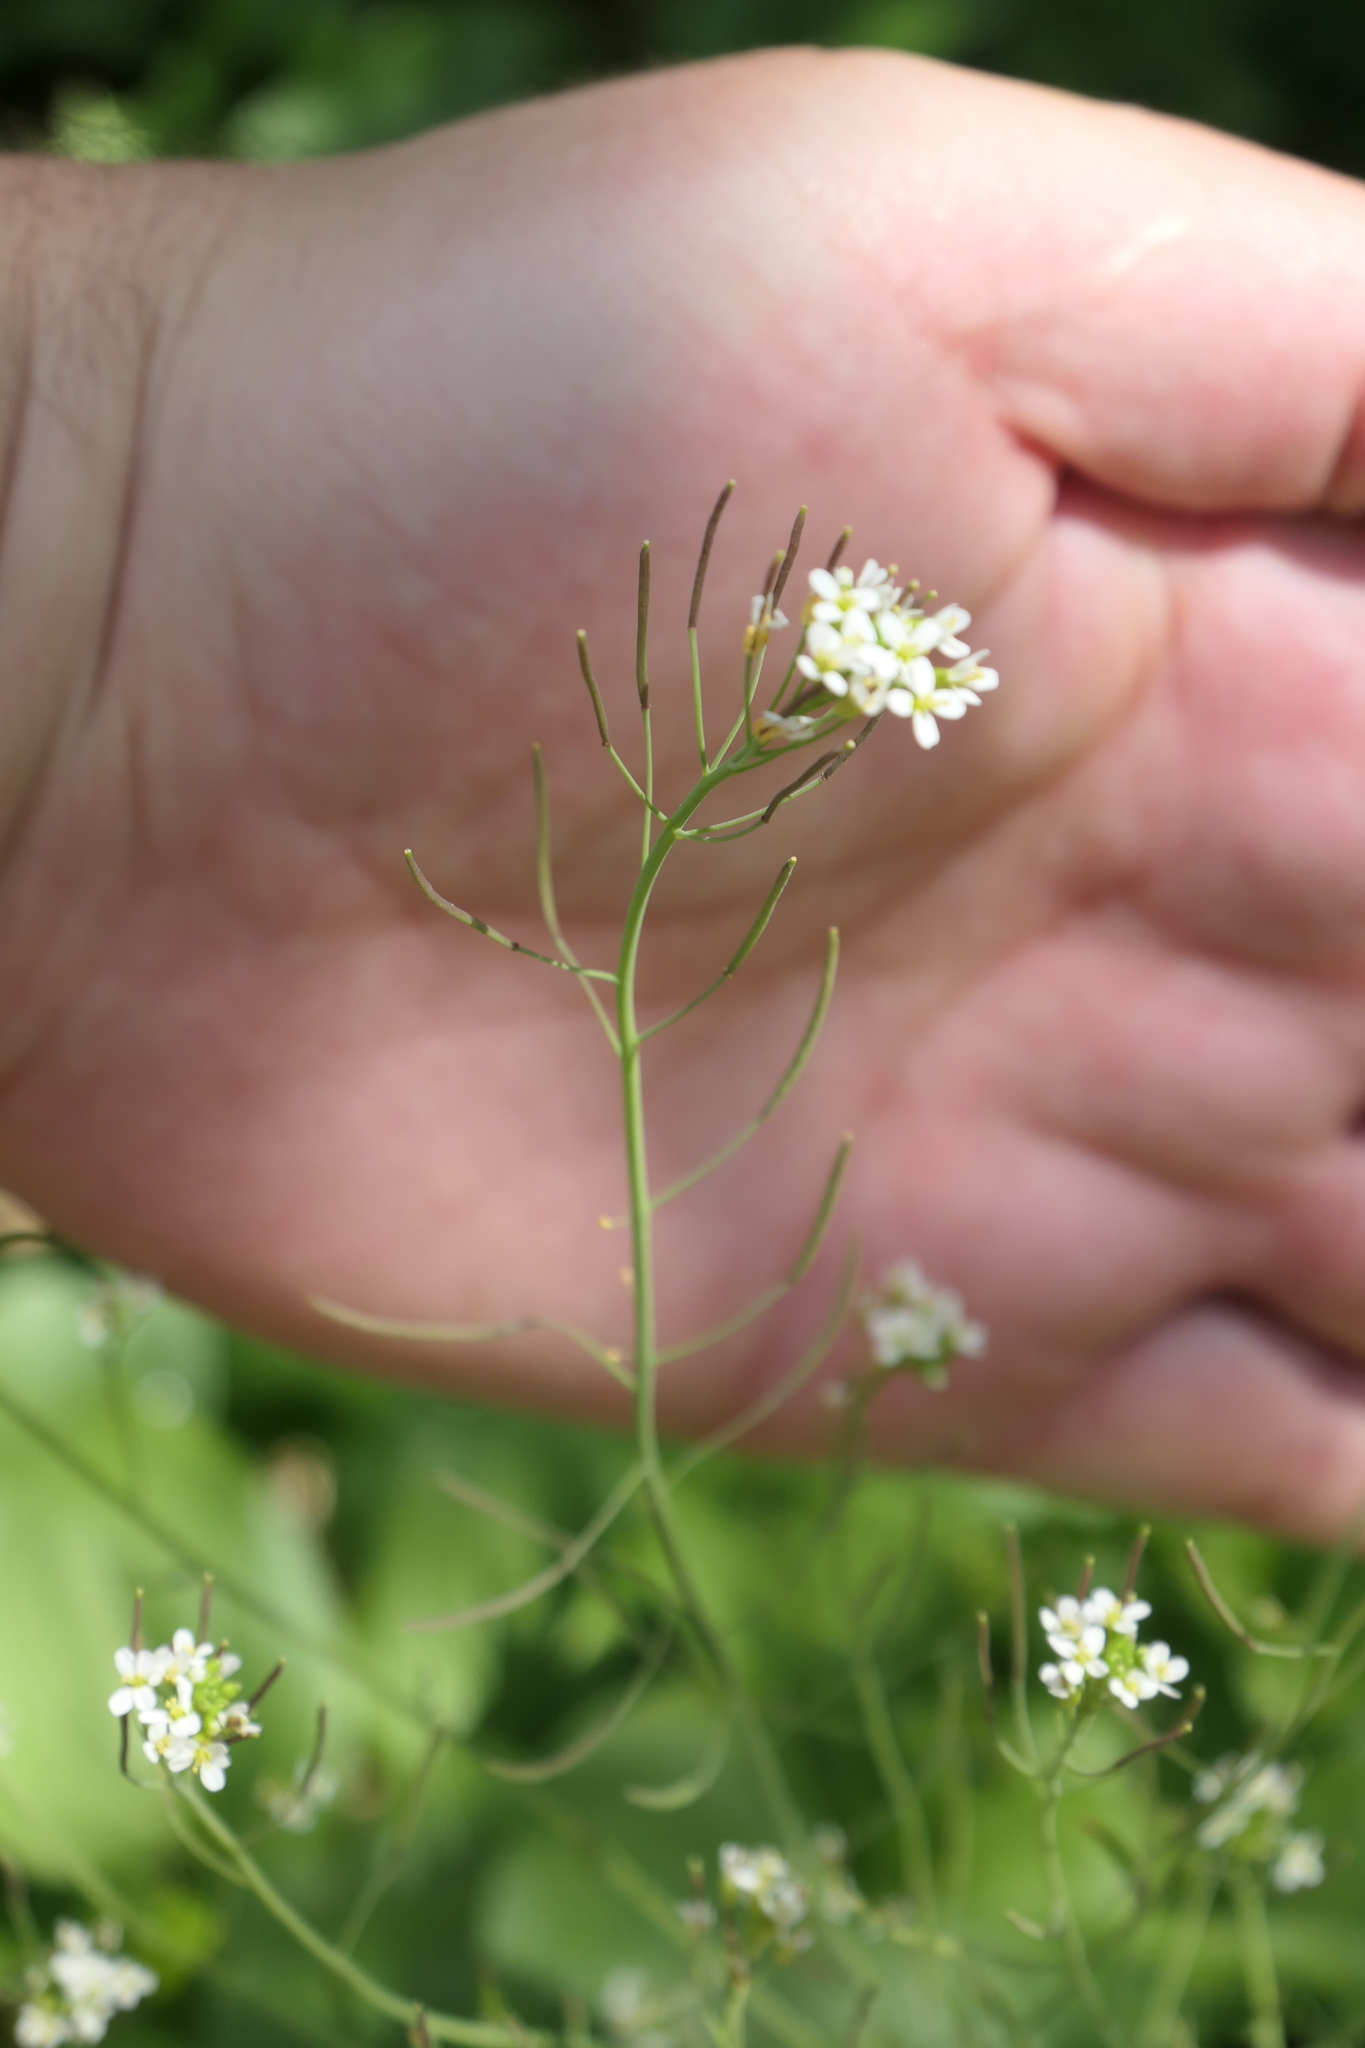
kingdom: Plantae
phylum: Tracheophyta
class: Magnoliopsida
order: Brassicales
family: Brassicaceae
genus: Arabidopsis
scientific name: Arabidopsis thaliana
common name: Thale cress
